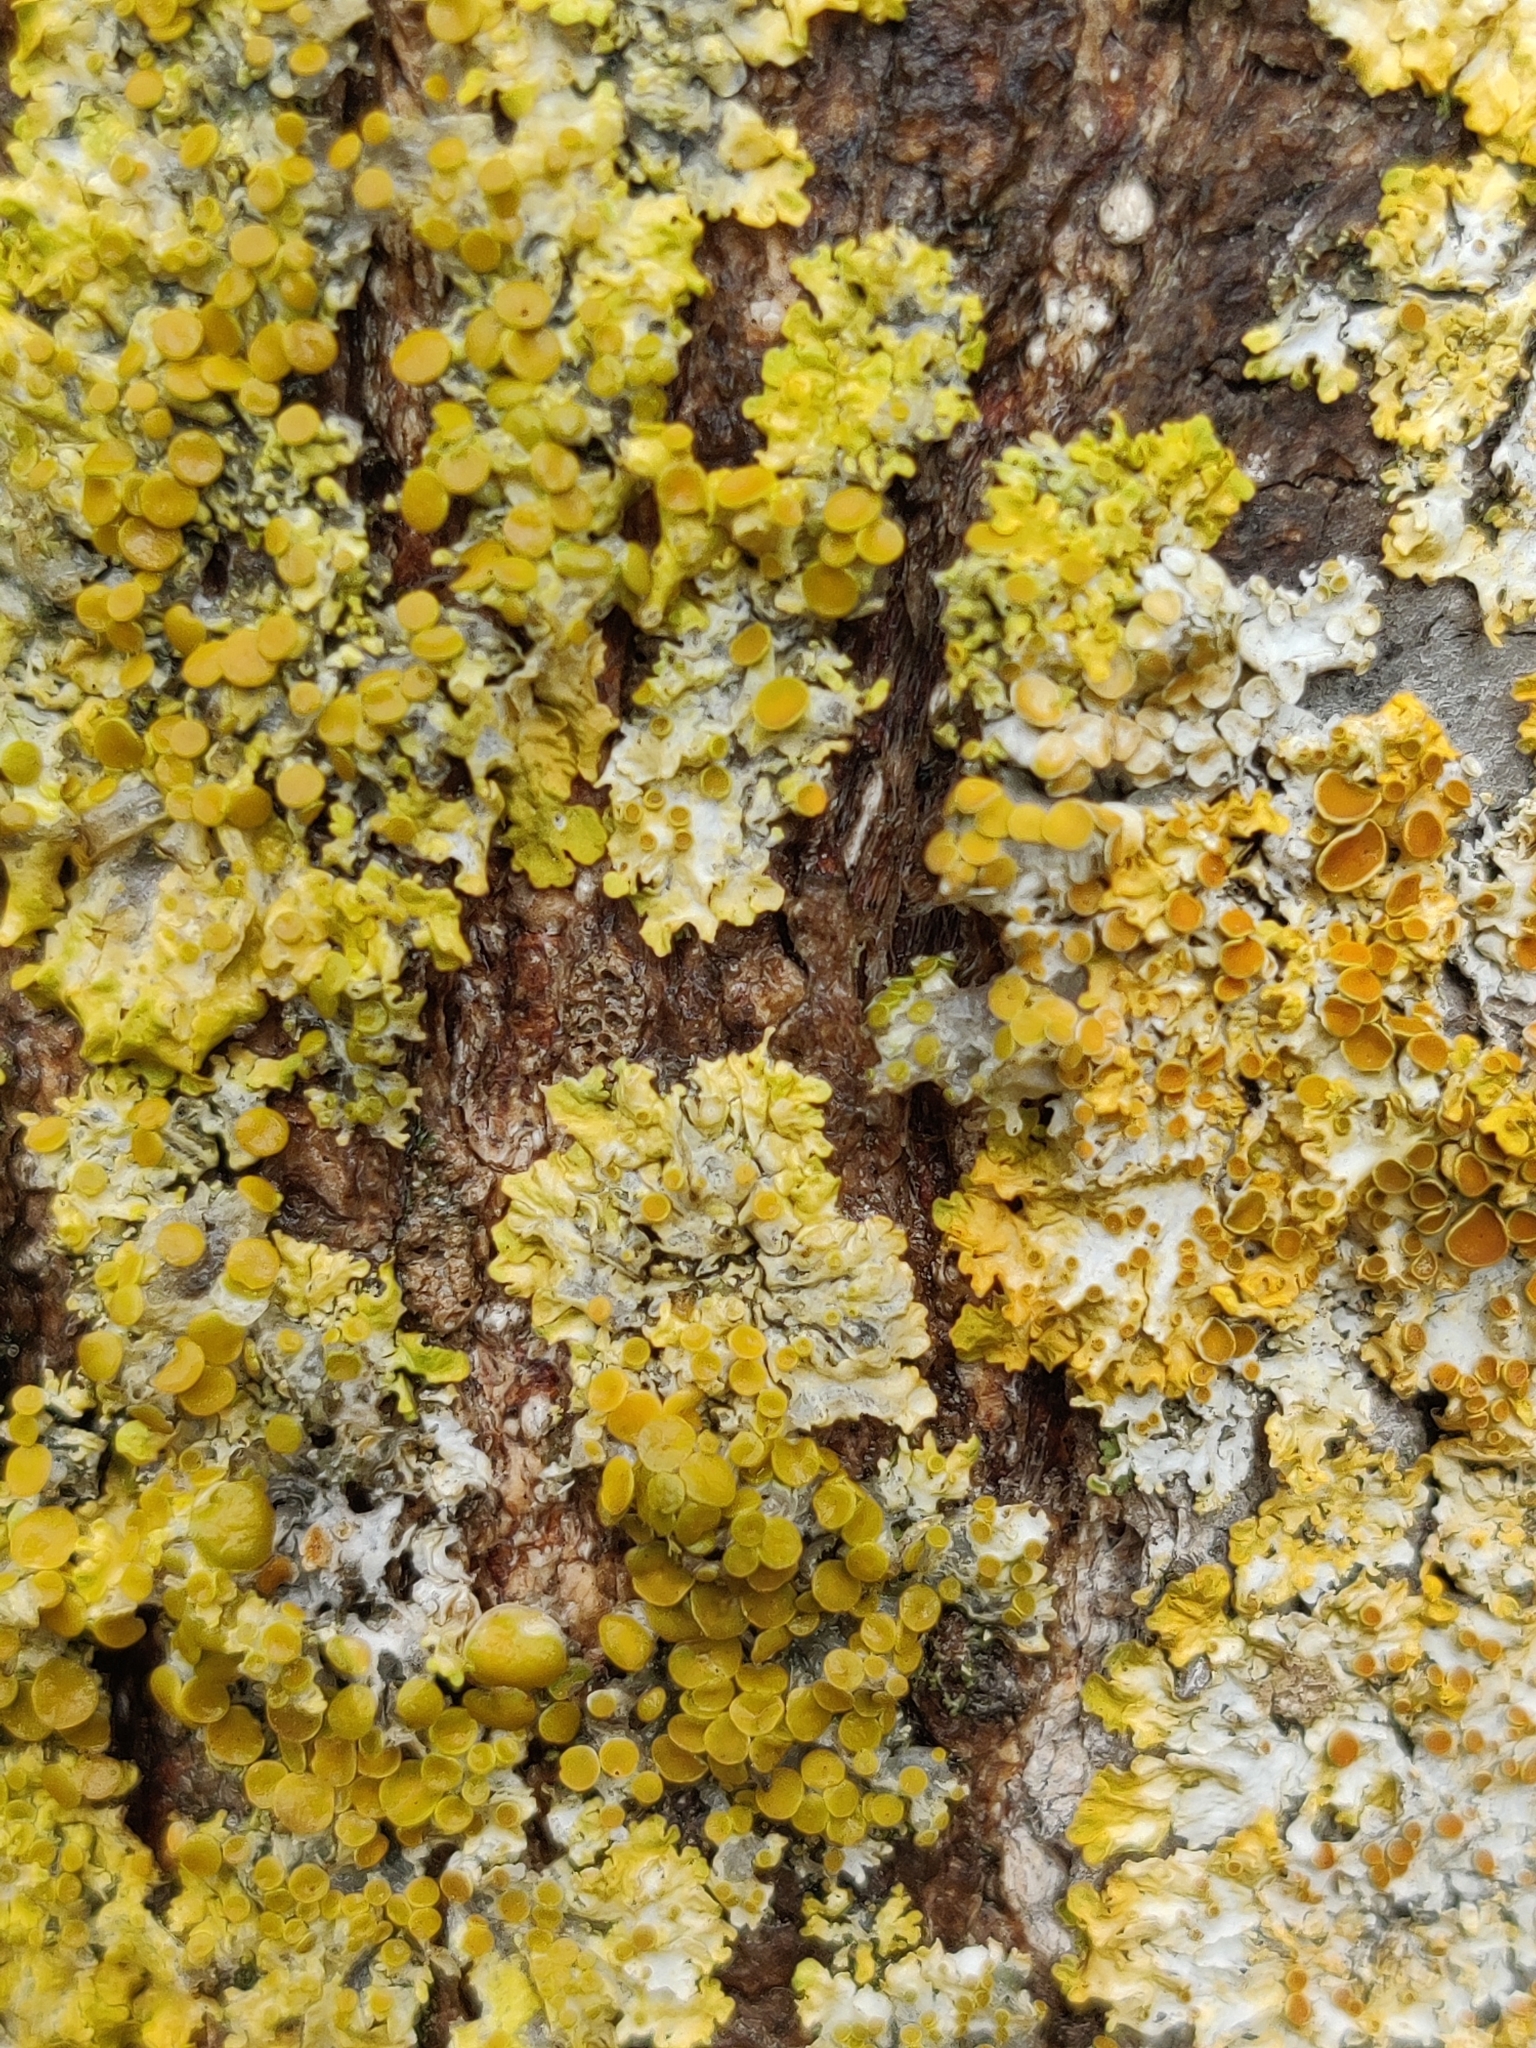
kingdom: Fungi
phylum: Ascomycota
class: Lecanoromycetes
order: Teloschistales
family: Teloschistaceae
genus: Xanthoria
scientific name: Xanthoria parietina
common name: Common orange lichen
